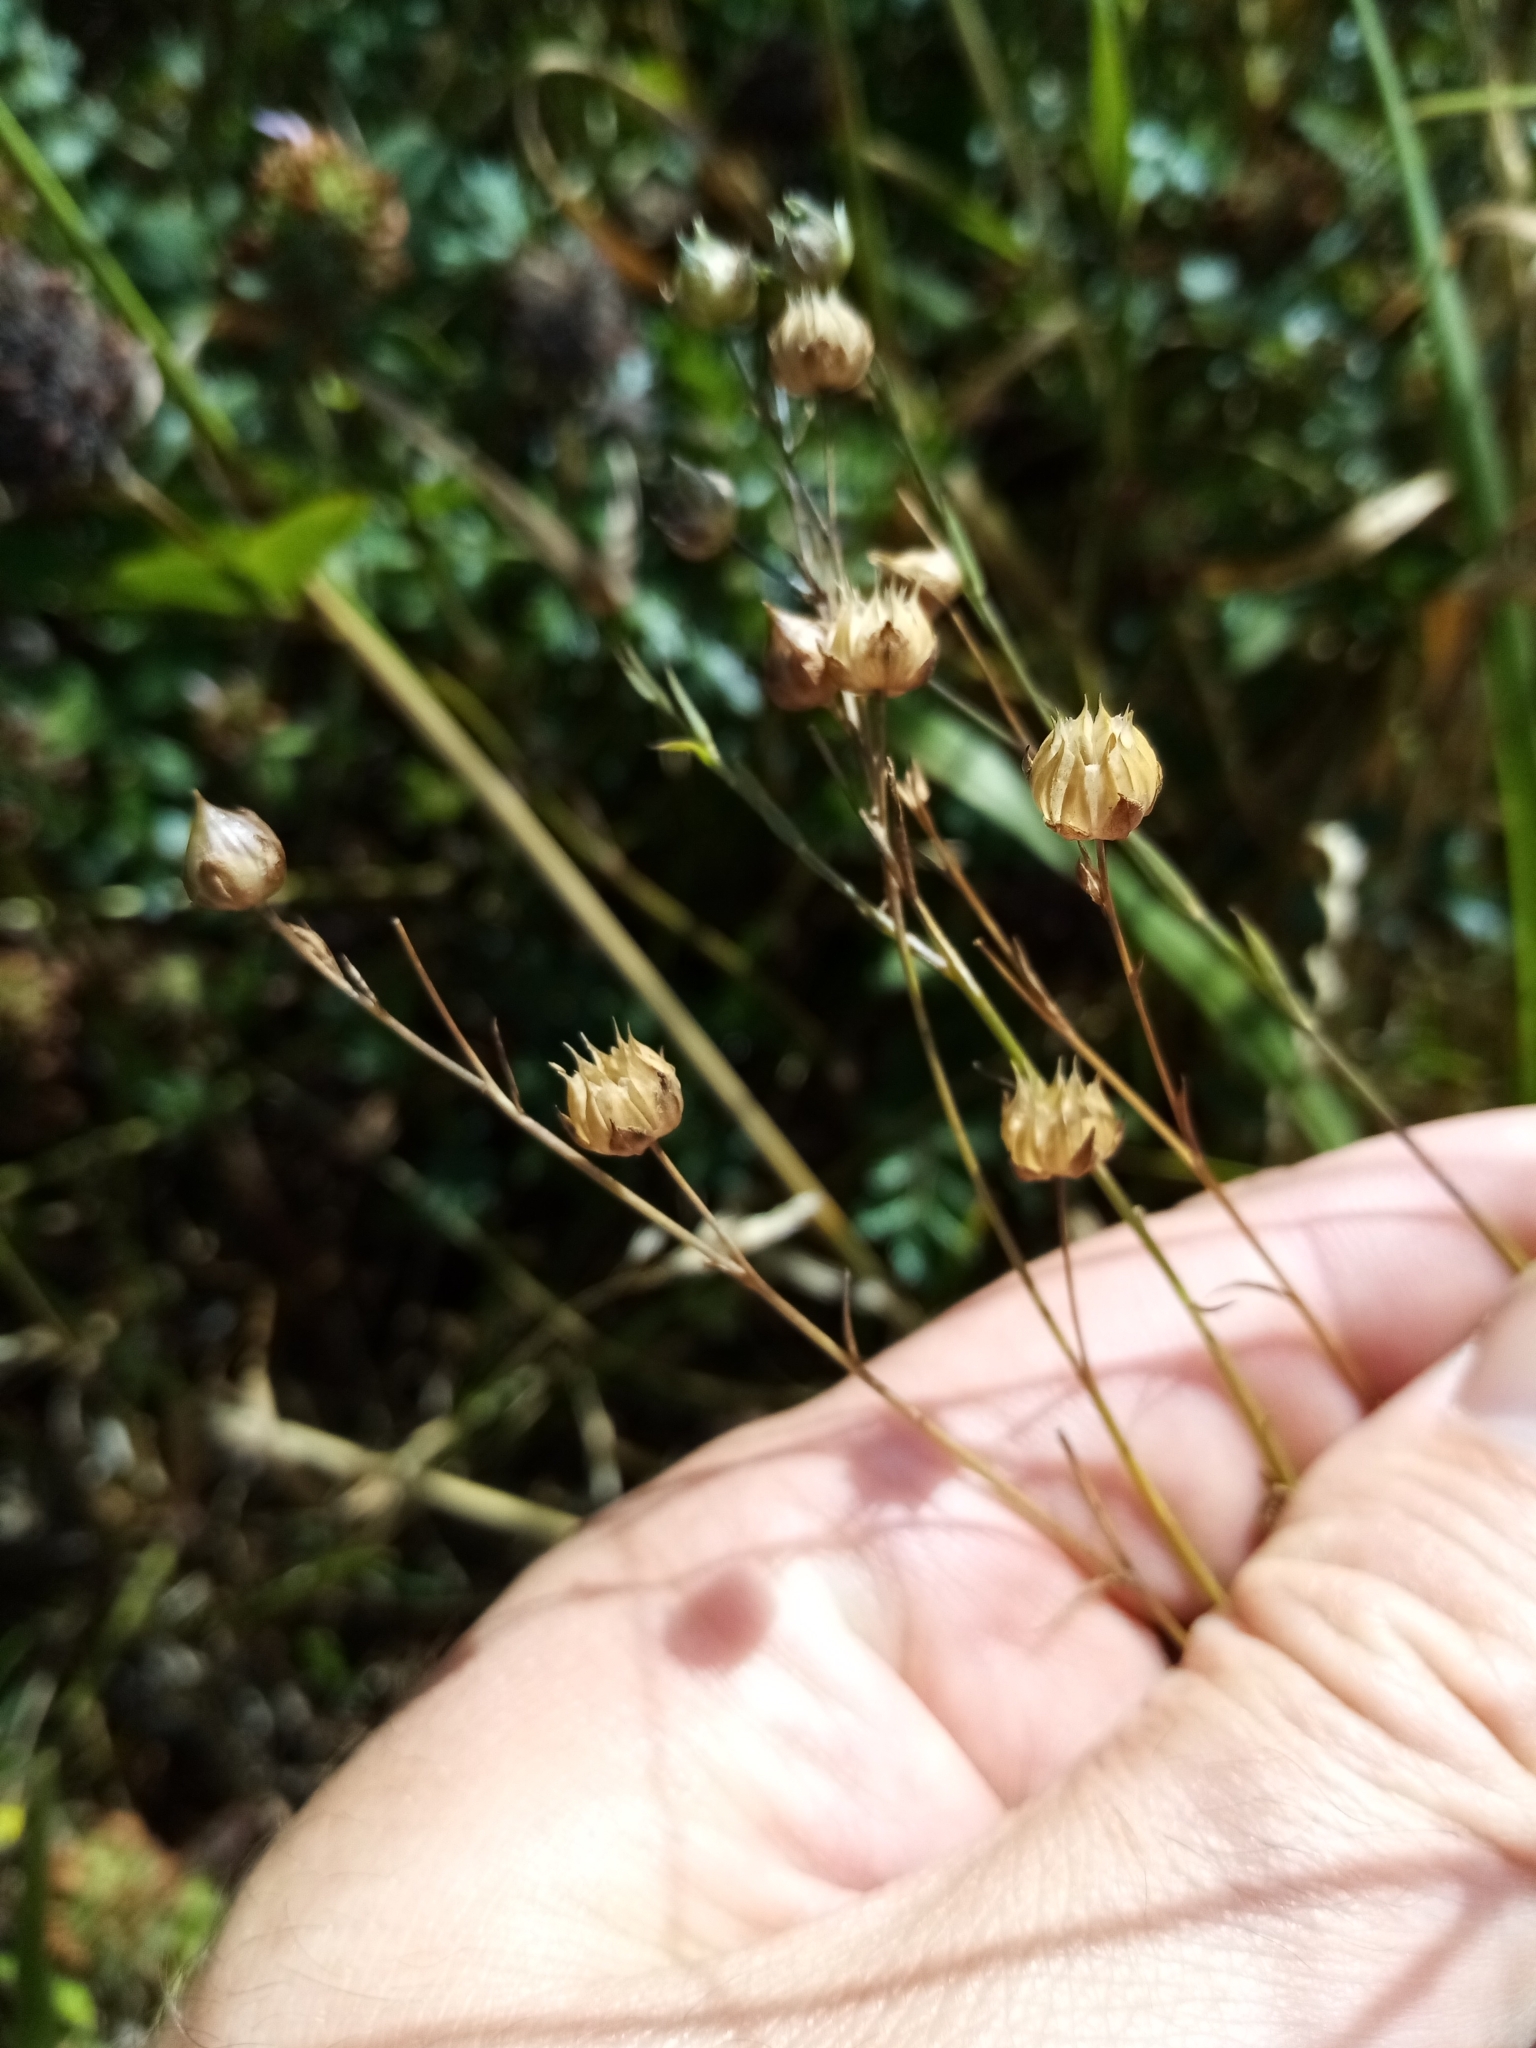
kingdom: Plantae
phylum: Tracheophyta
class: Magnoliopsida
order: Malpighiales
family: Linaceae
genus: Linum
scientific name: Linum bienne
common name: Pale flax
